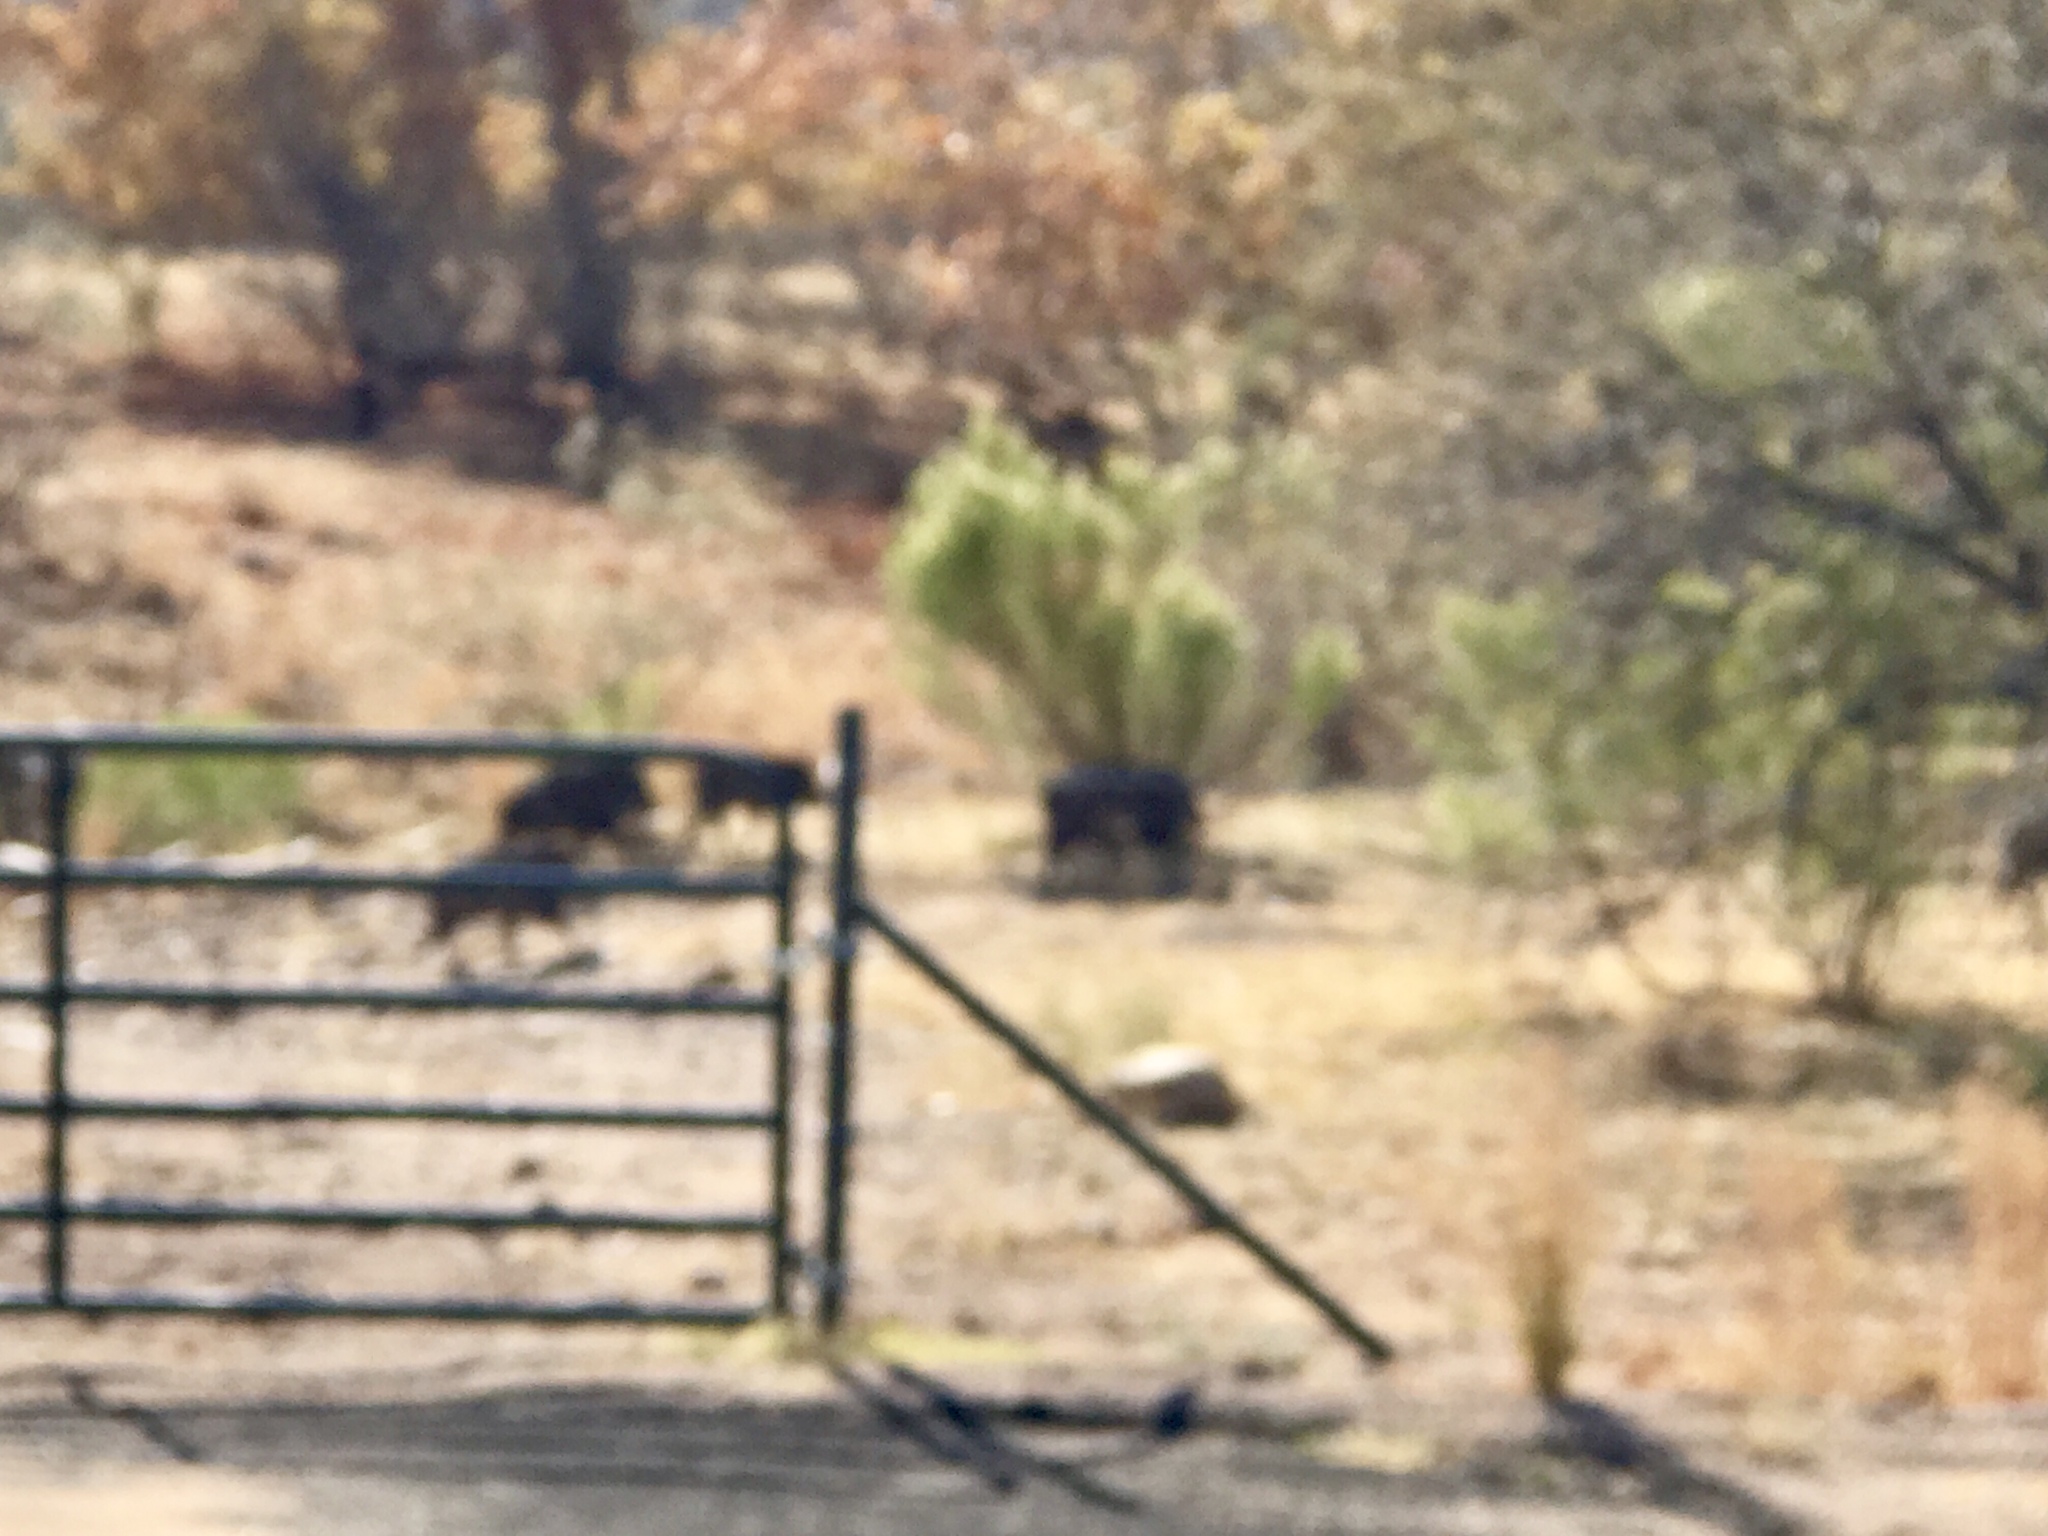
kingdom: Animalia
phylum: Chordata
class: Mammalia
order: Artiodactyla
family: Tayassuidae
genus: Pecari
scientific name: Pecari tajacu
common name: Collared peccary
